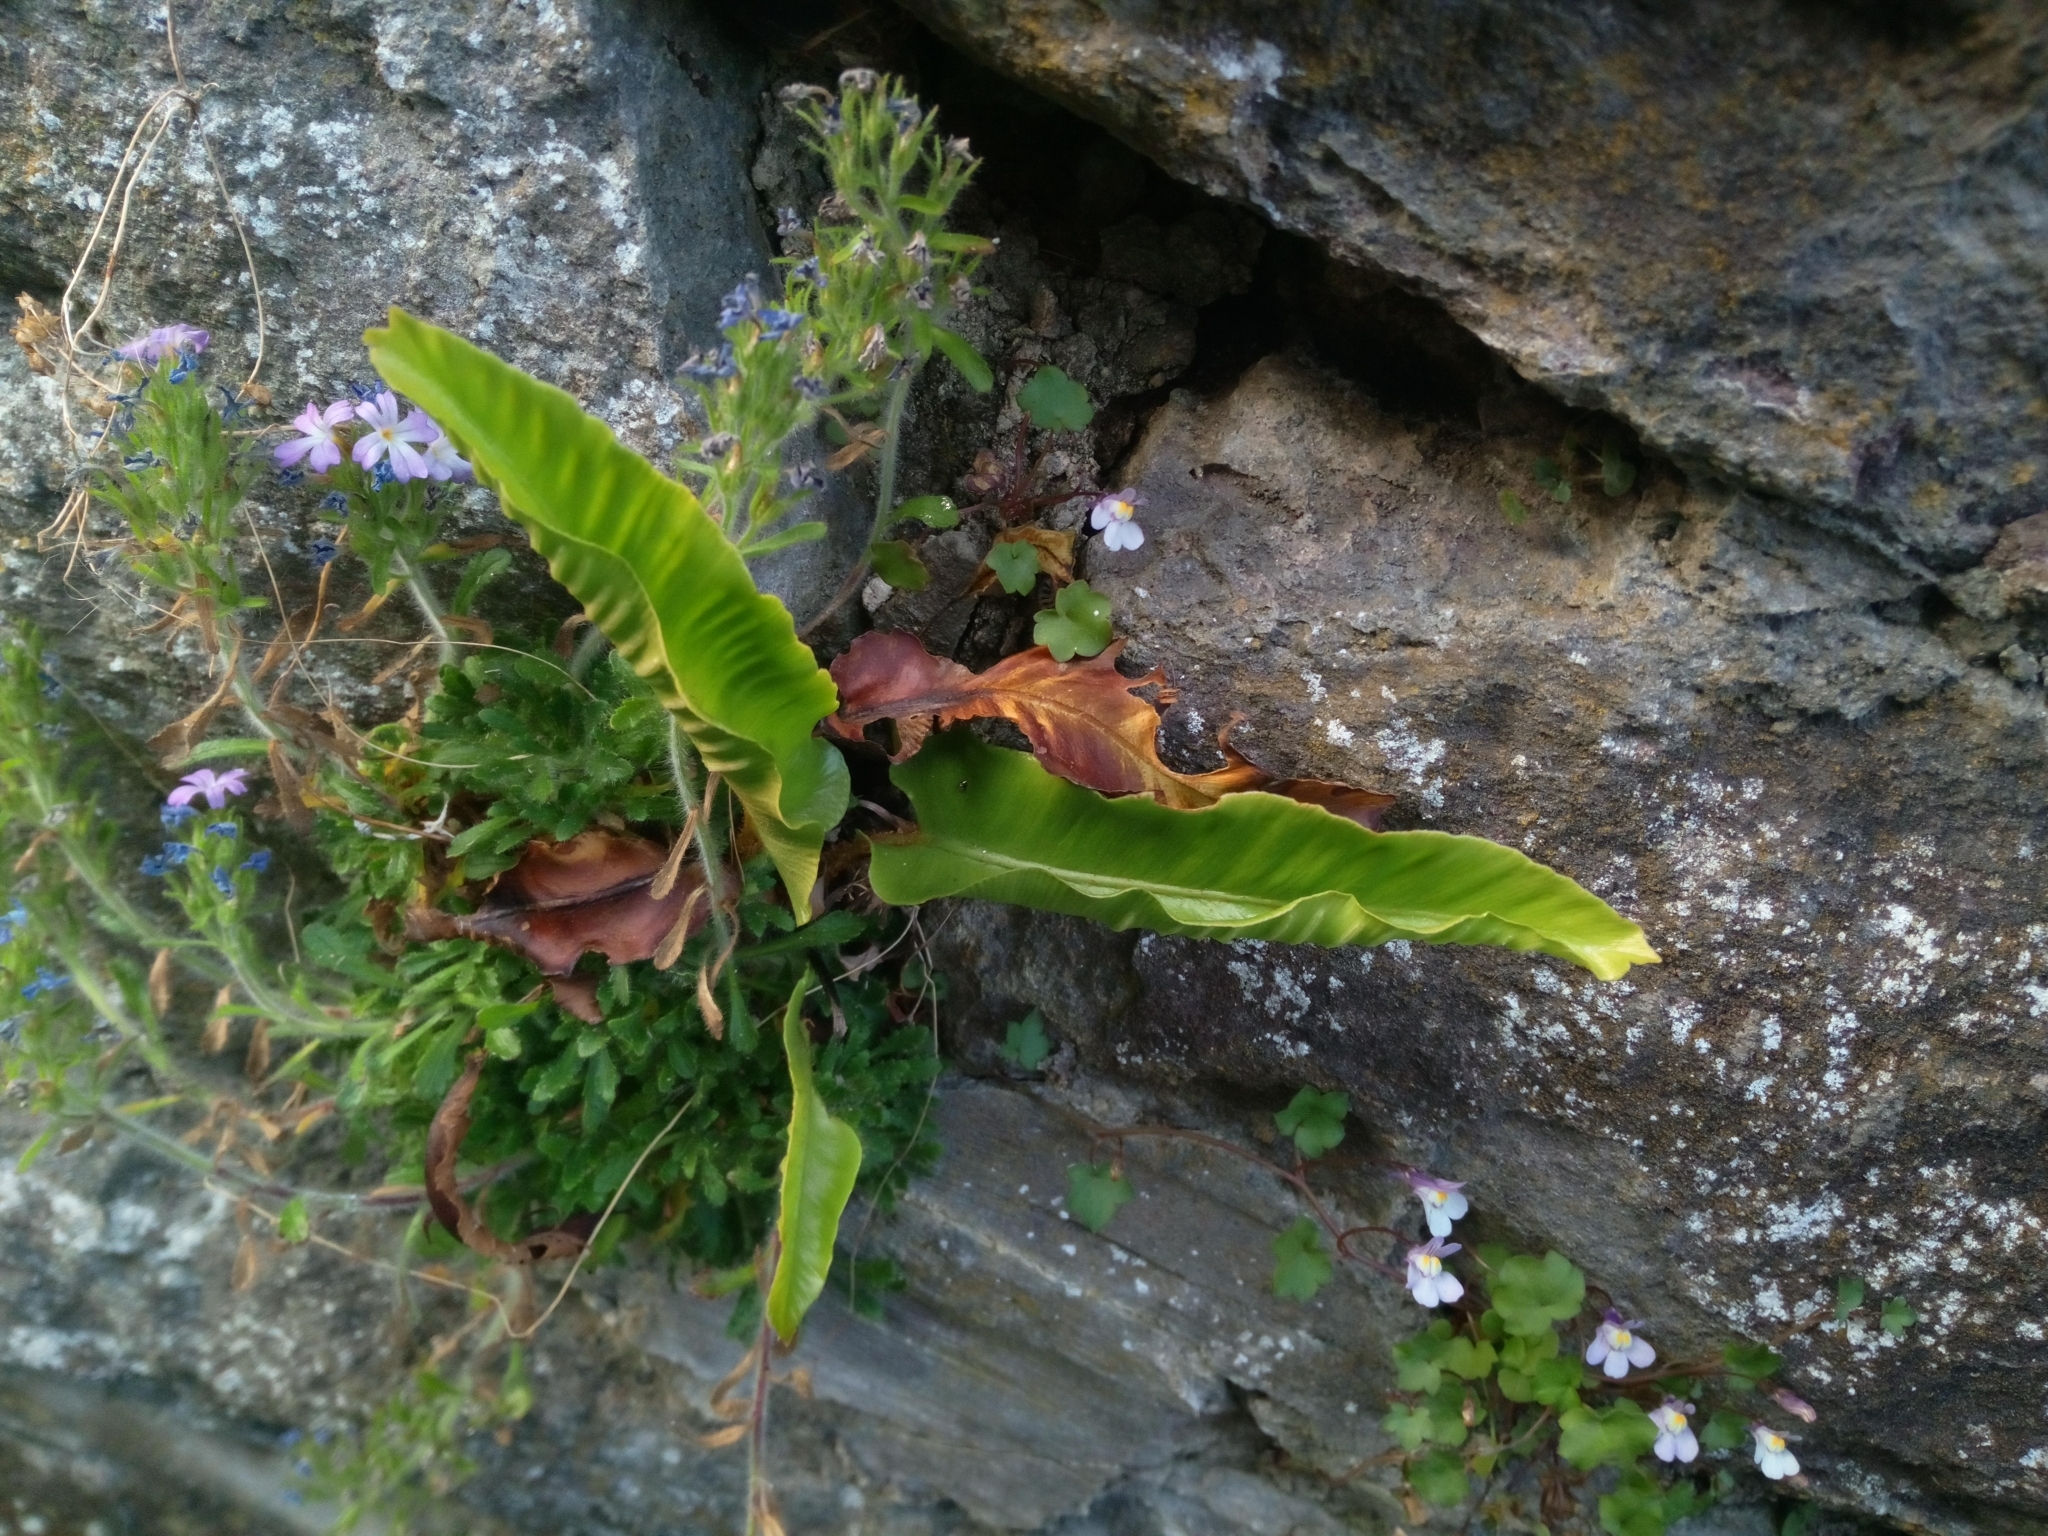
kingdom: Plantae
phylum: Tracheophyta
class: Polypodiopsida
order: Polypodiales
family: Aspleniaceae
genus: Asplenium
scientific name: Asplenium scolopendrium
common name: Hart's-tongue fern
